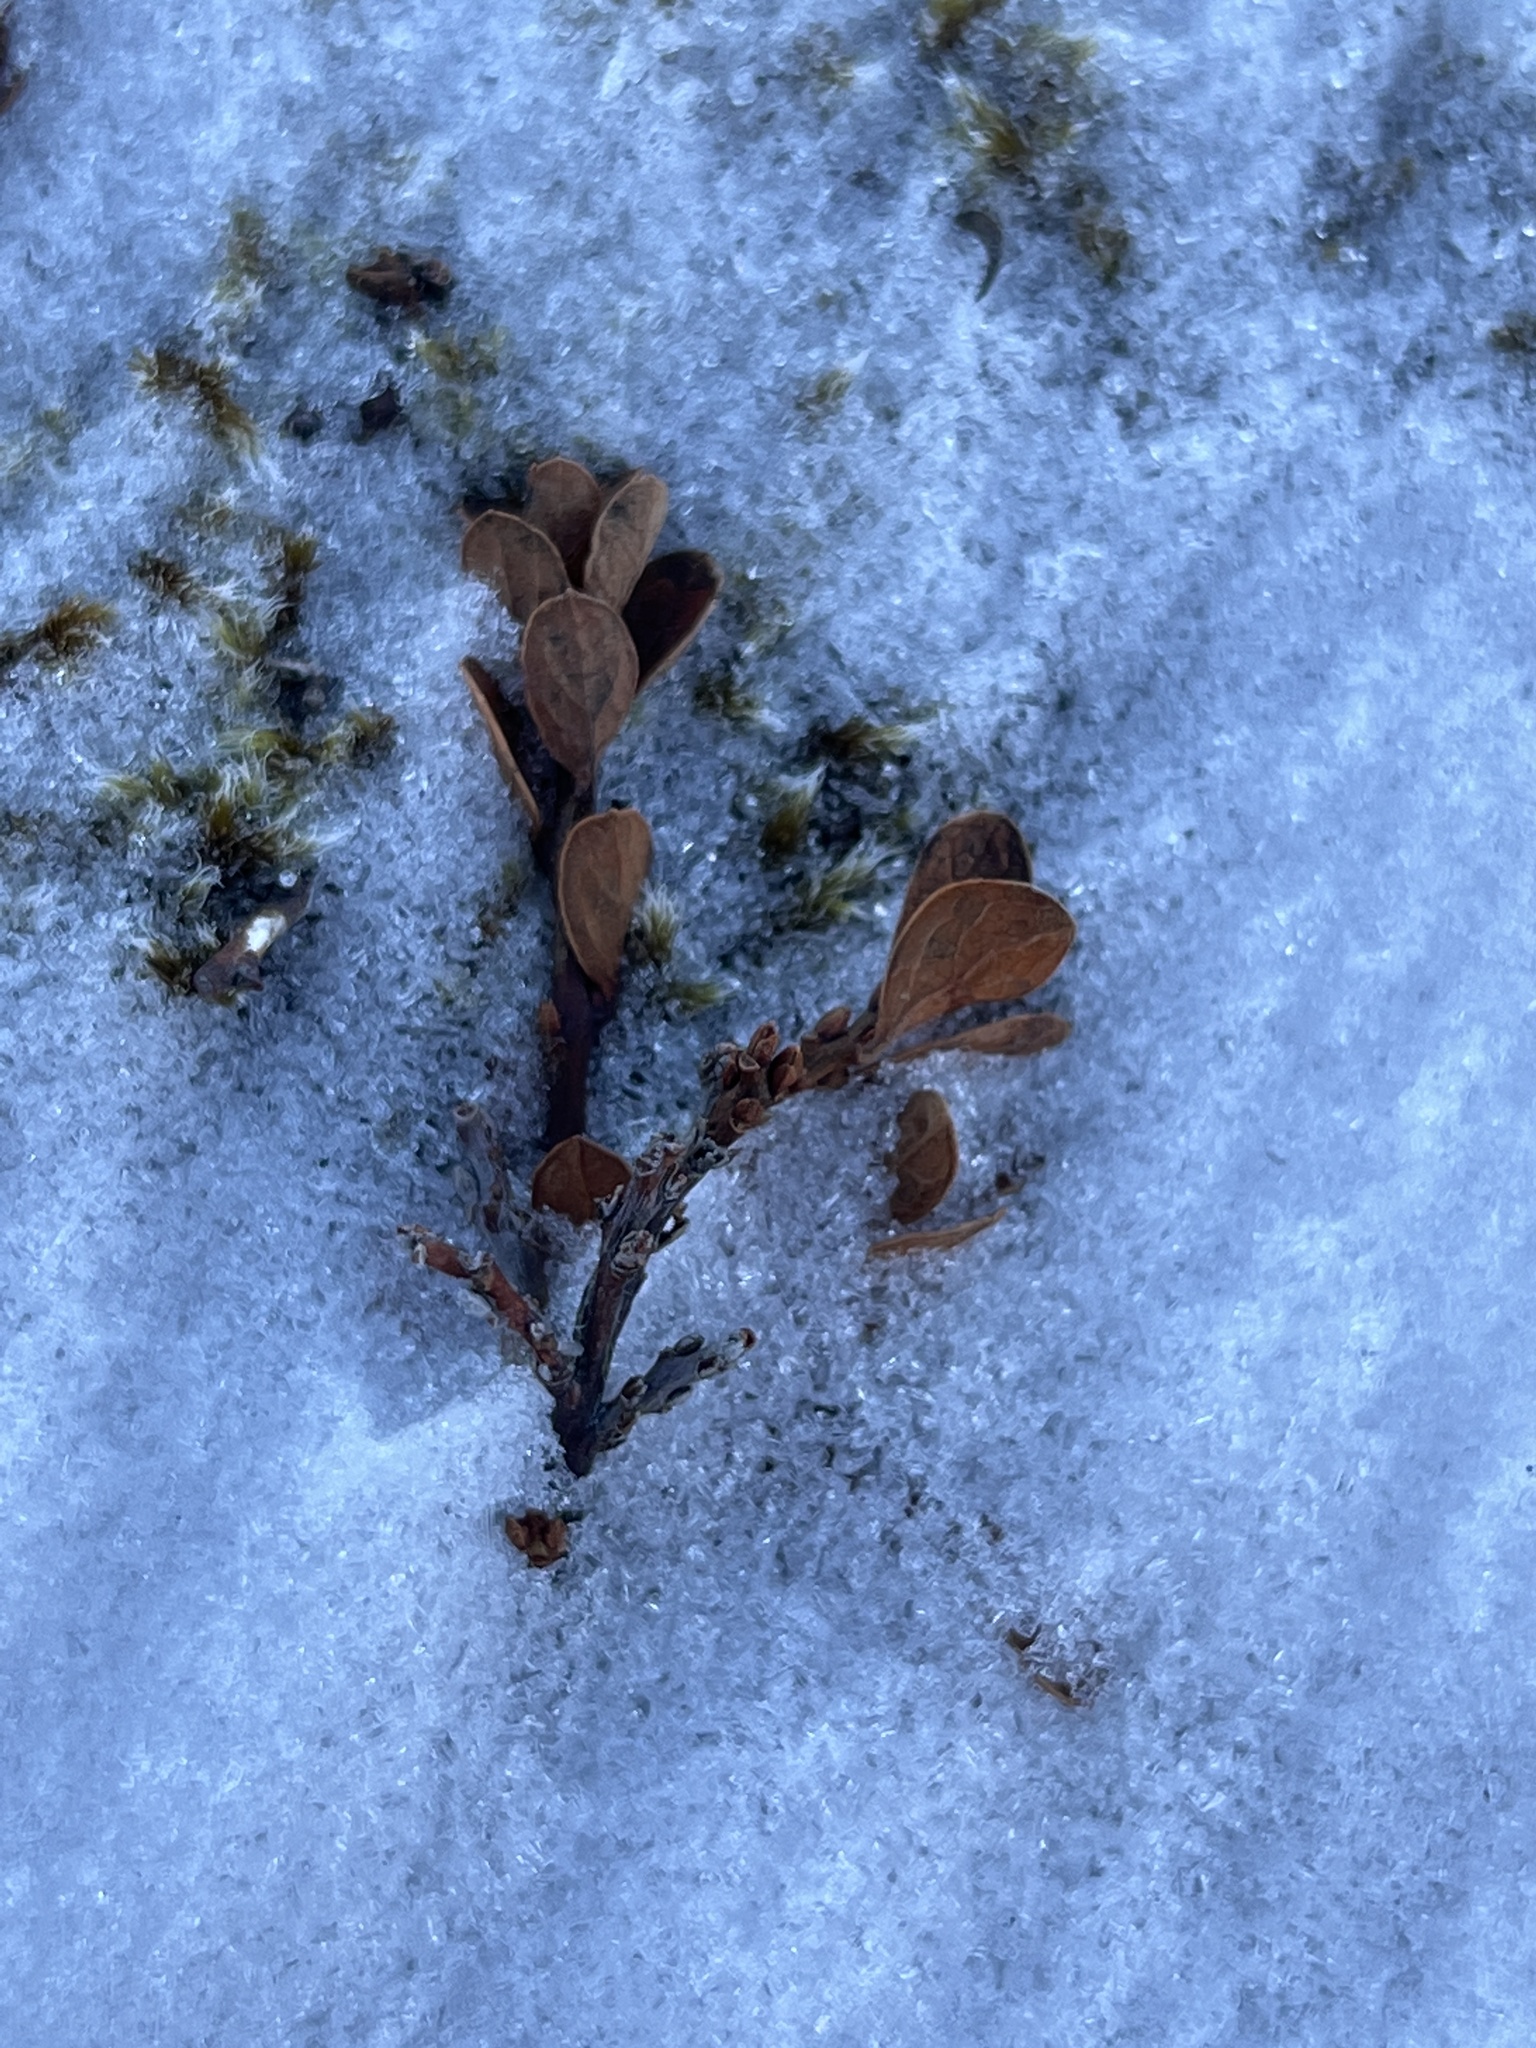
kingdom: Plantae
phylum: Tracheophyta
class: Magnoliopsida
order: Ericales
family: Ericaceae
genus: Vaccinium
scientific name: Vaccinium uliginosum
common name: Bog bilberry
